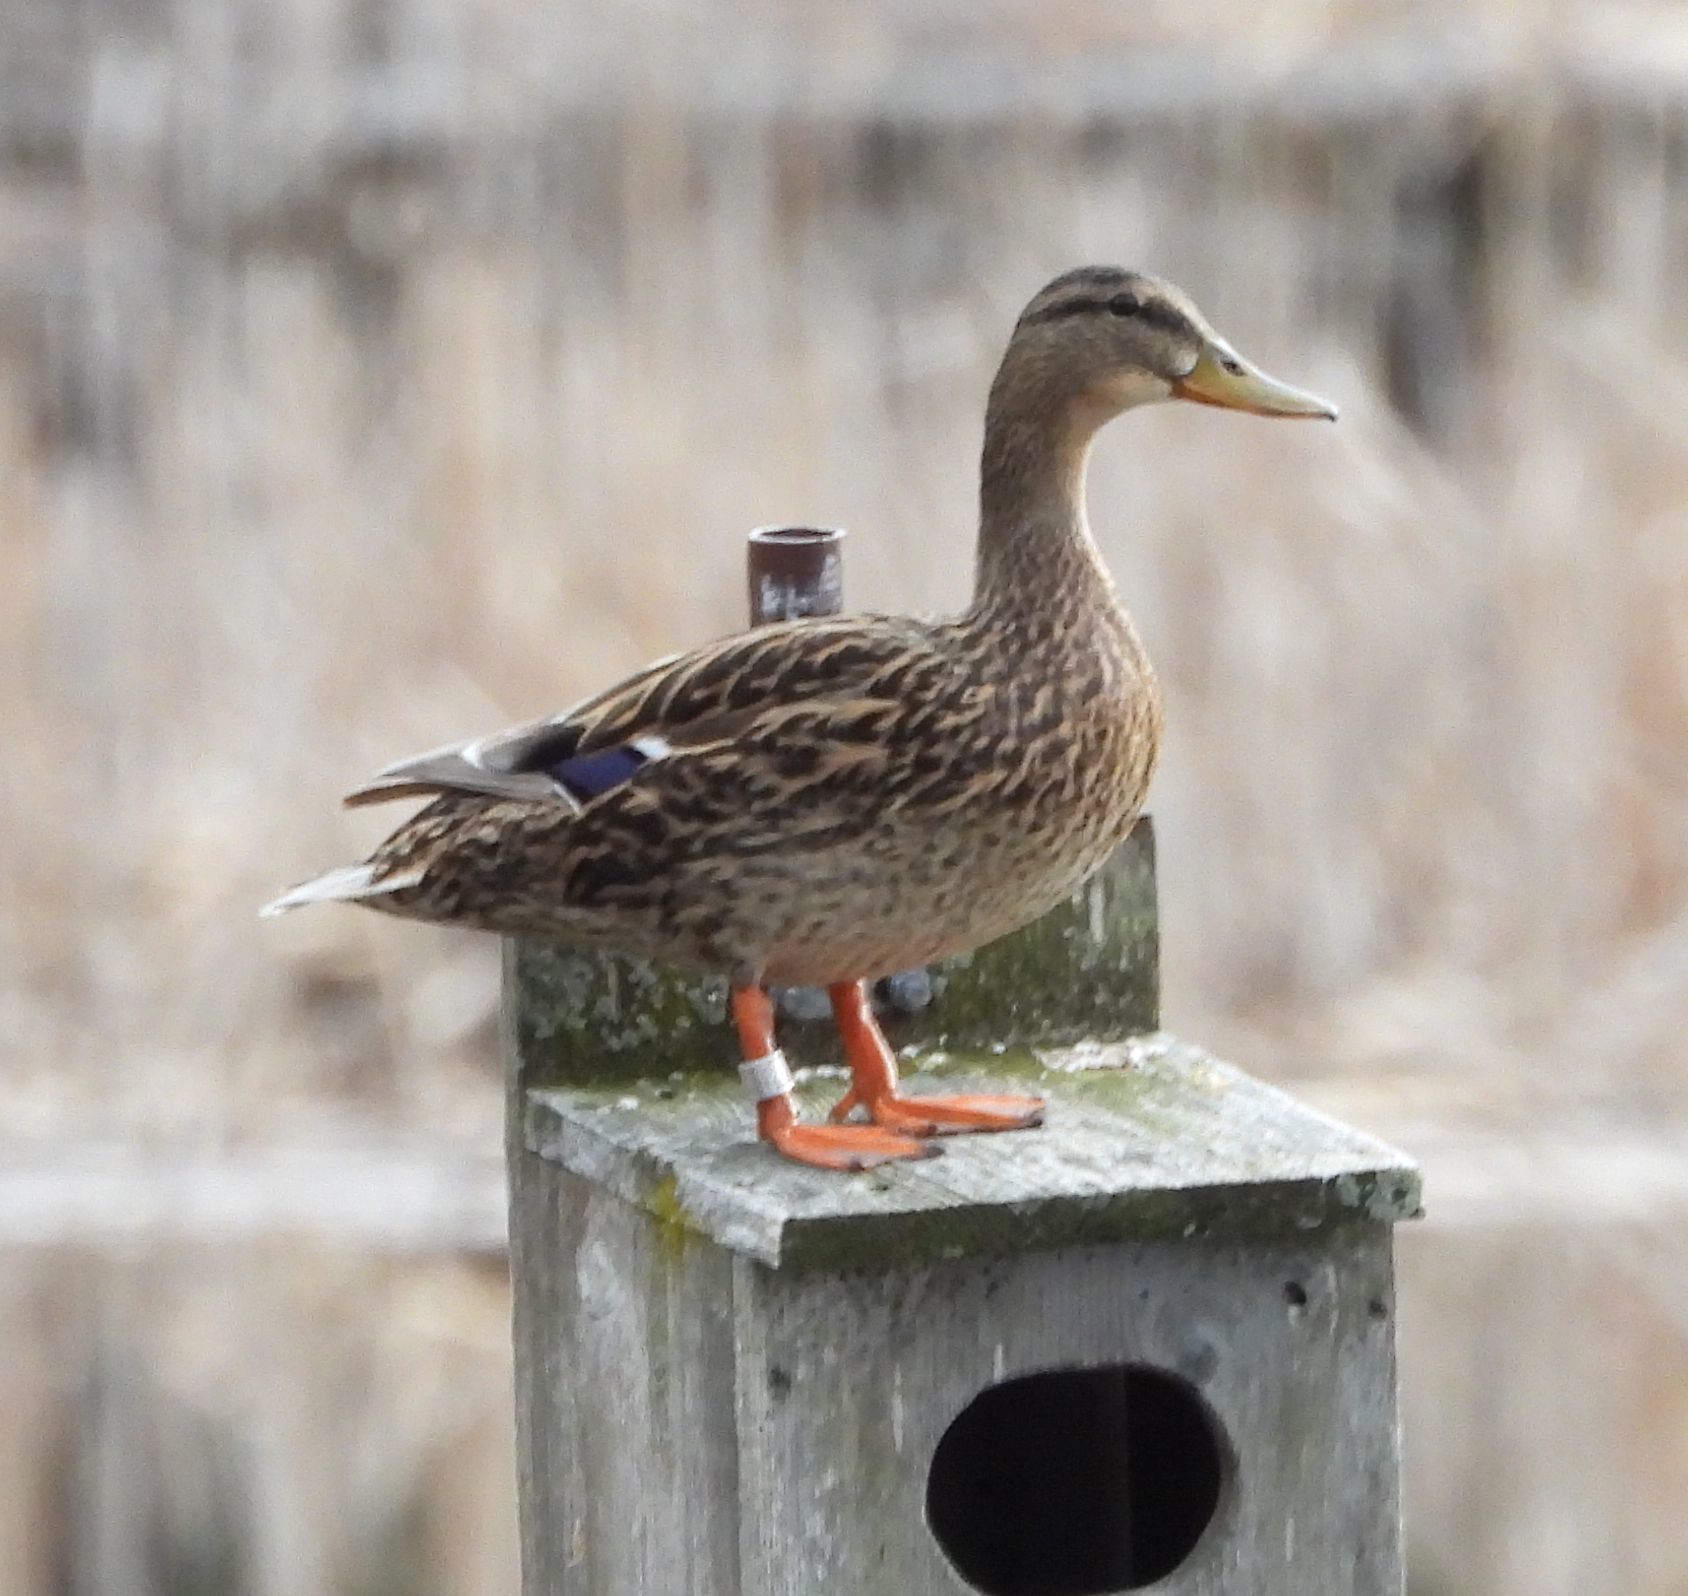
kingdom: Animalia
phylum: Chordata
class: Aves
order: Anseriformes
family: Anatidae
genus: Anas
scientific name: Anas platyrhynchos
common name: Mallard
